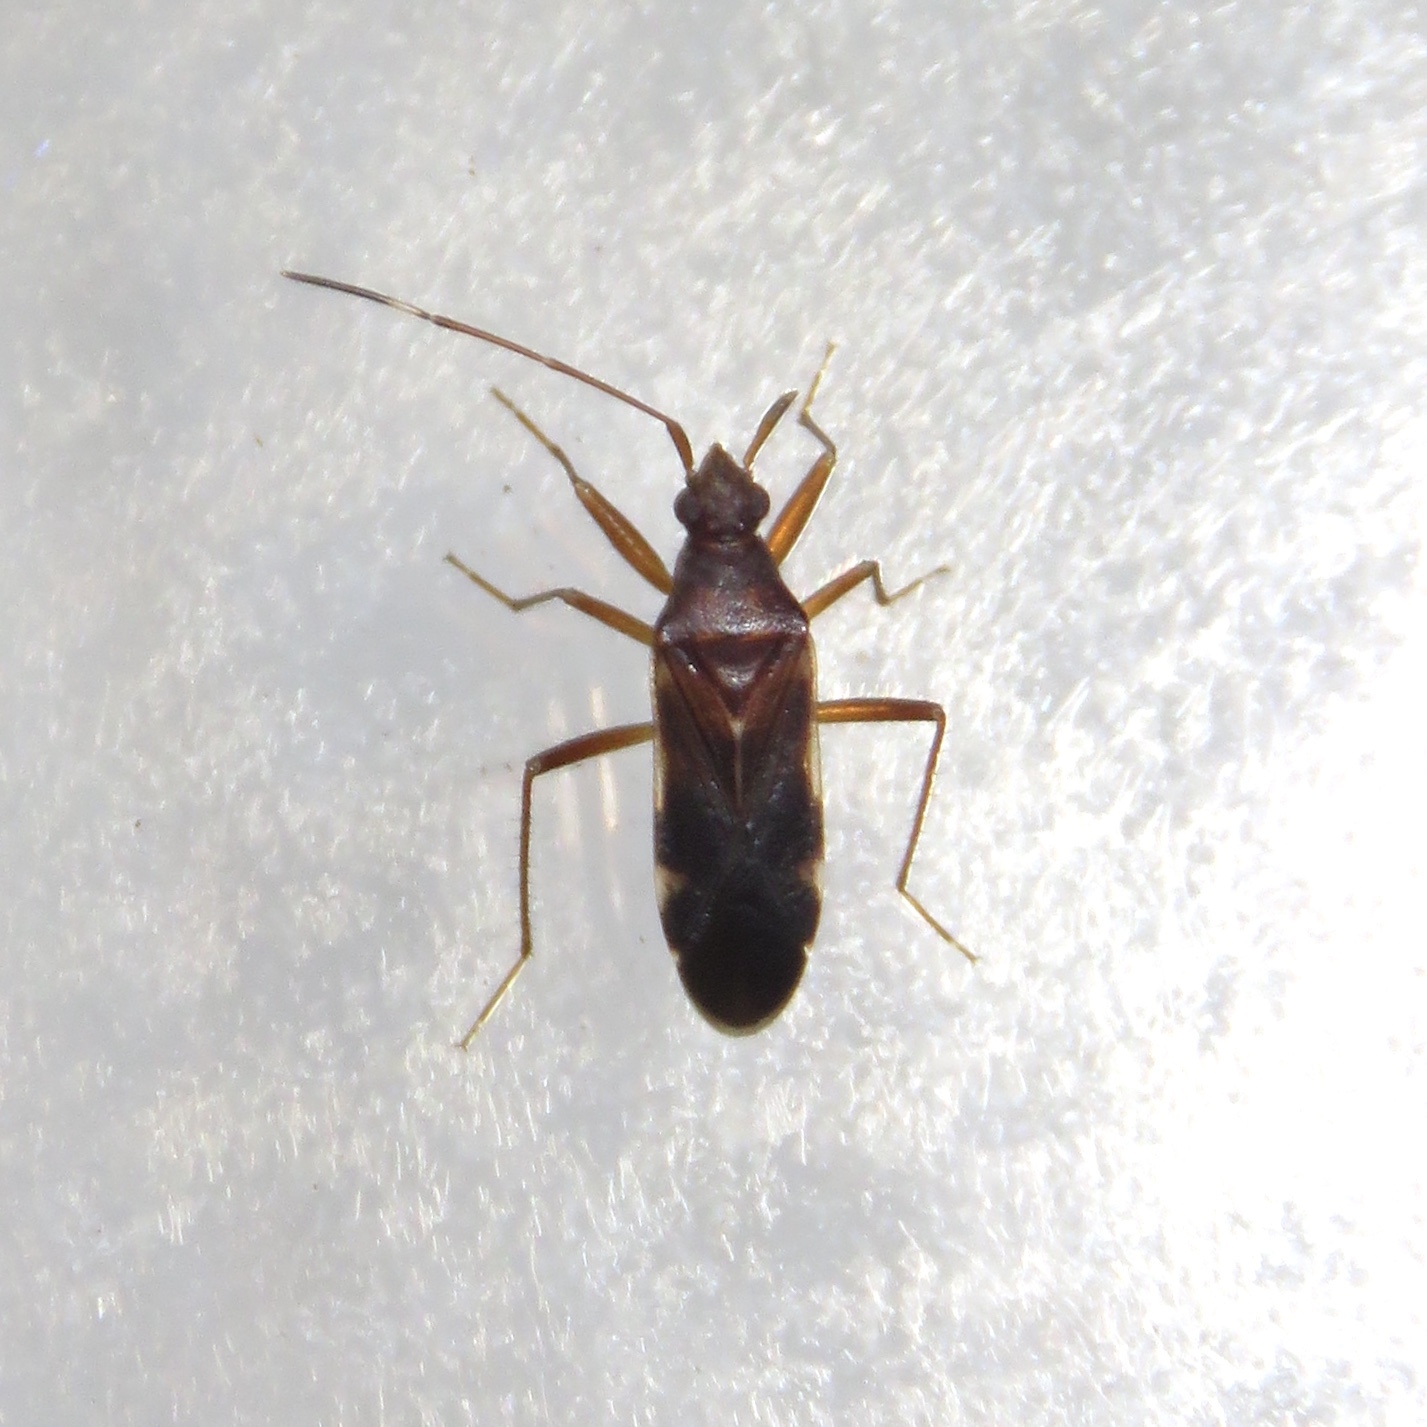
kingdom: Animalia
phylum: Arthropoda
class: Insecta
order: Hemiptera
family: Rhyparochromidae
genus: Ozophora
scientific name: Ozophora trinotata
